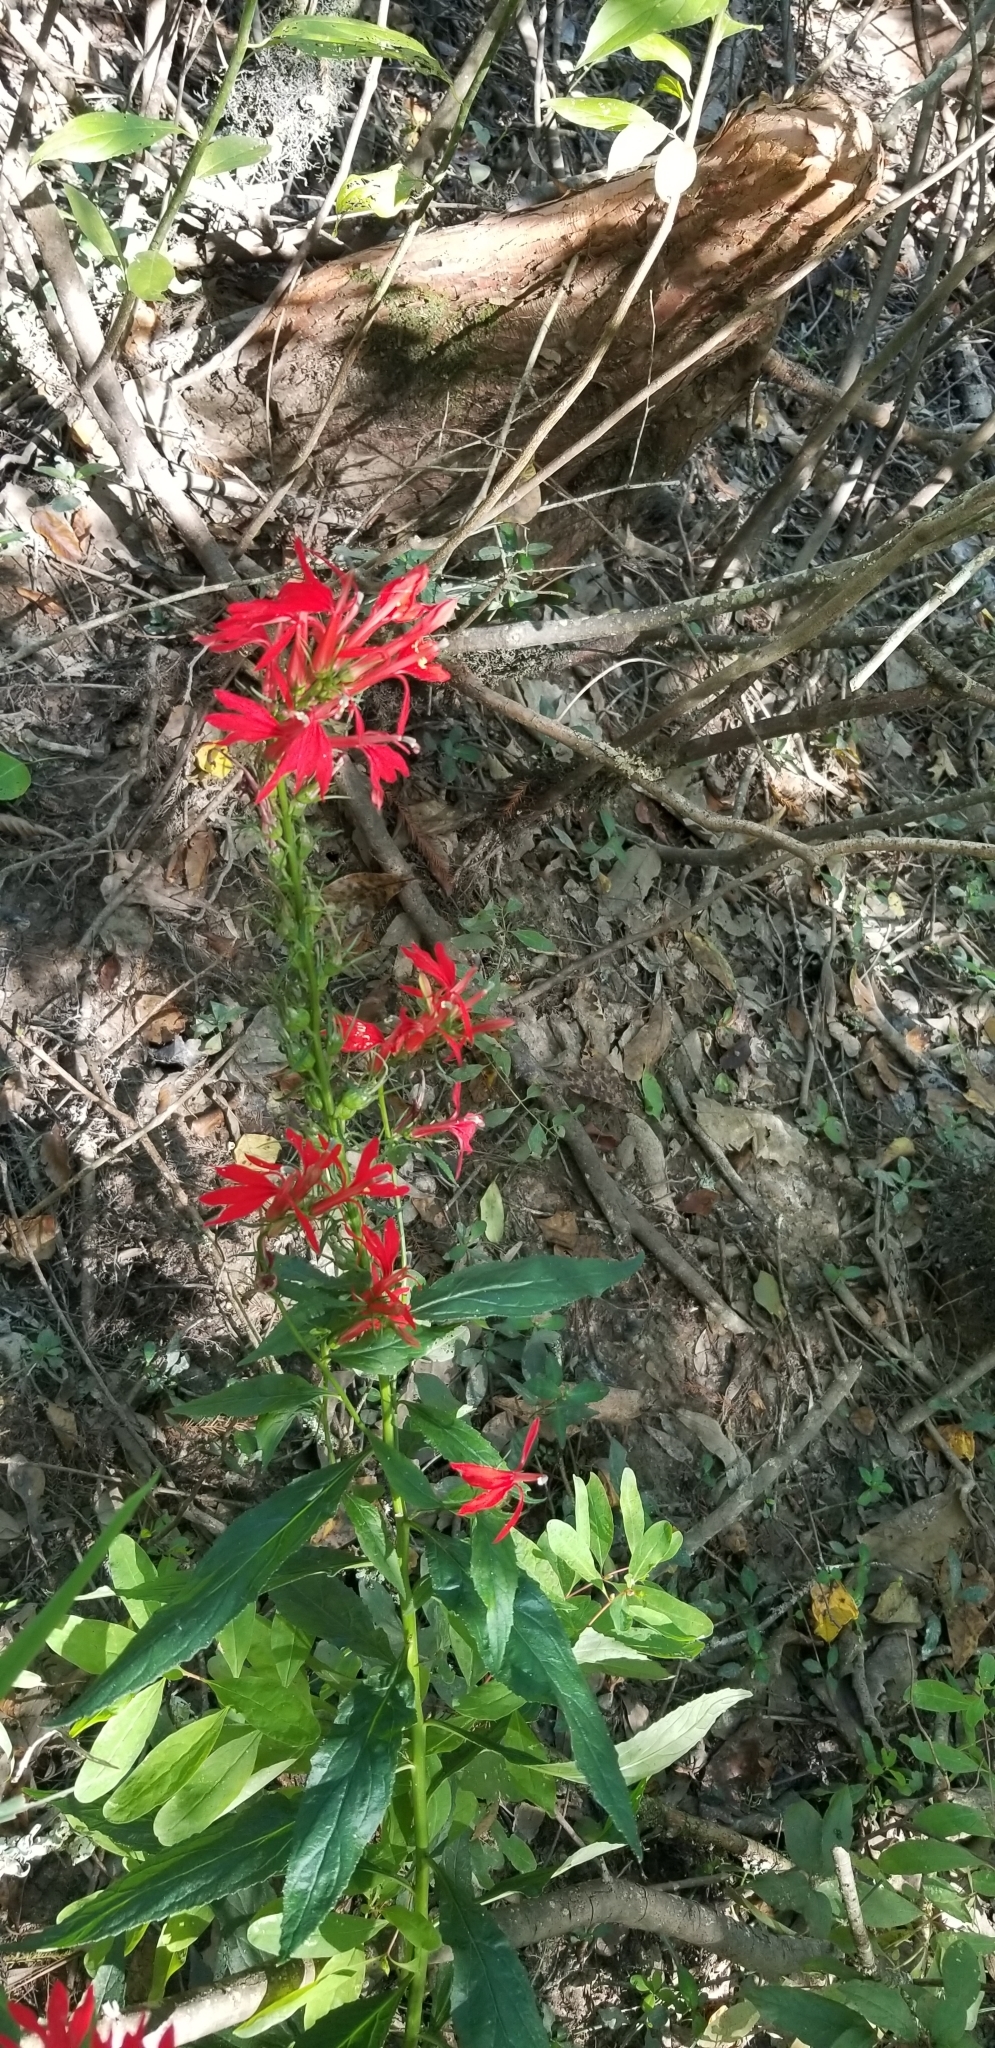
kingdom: Plantae
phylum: Tracheophyta
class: Magnoliopsida
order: Asterales
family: Campanulaceae
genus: Lobelia
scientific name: Lobelia cardinalis
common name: Cardinal flower
